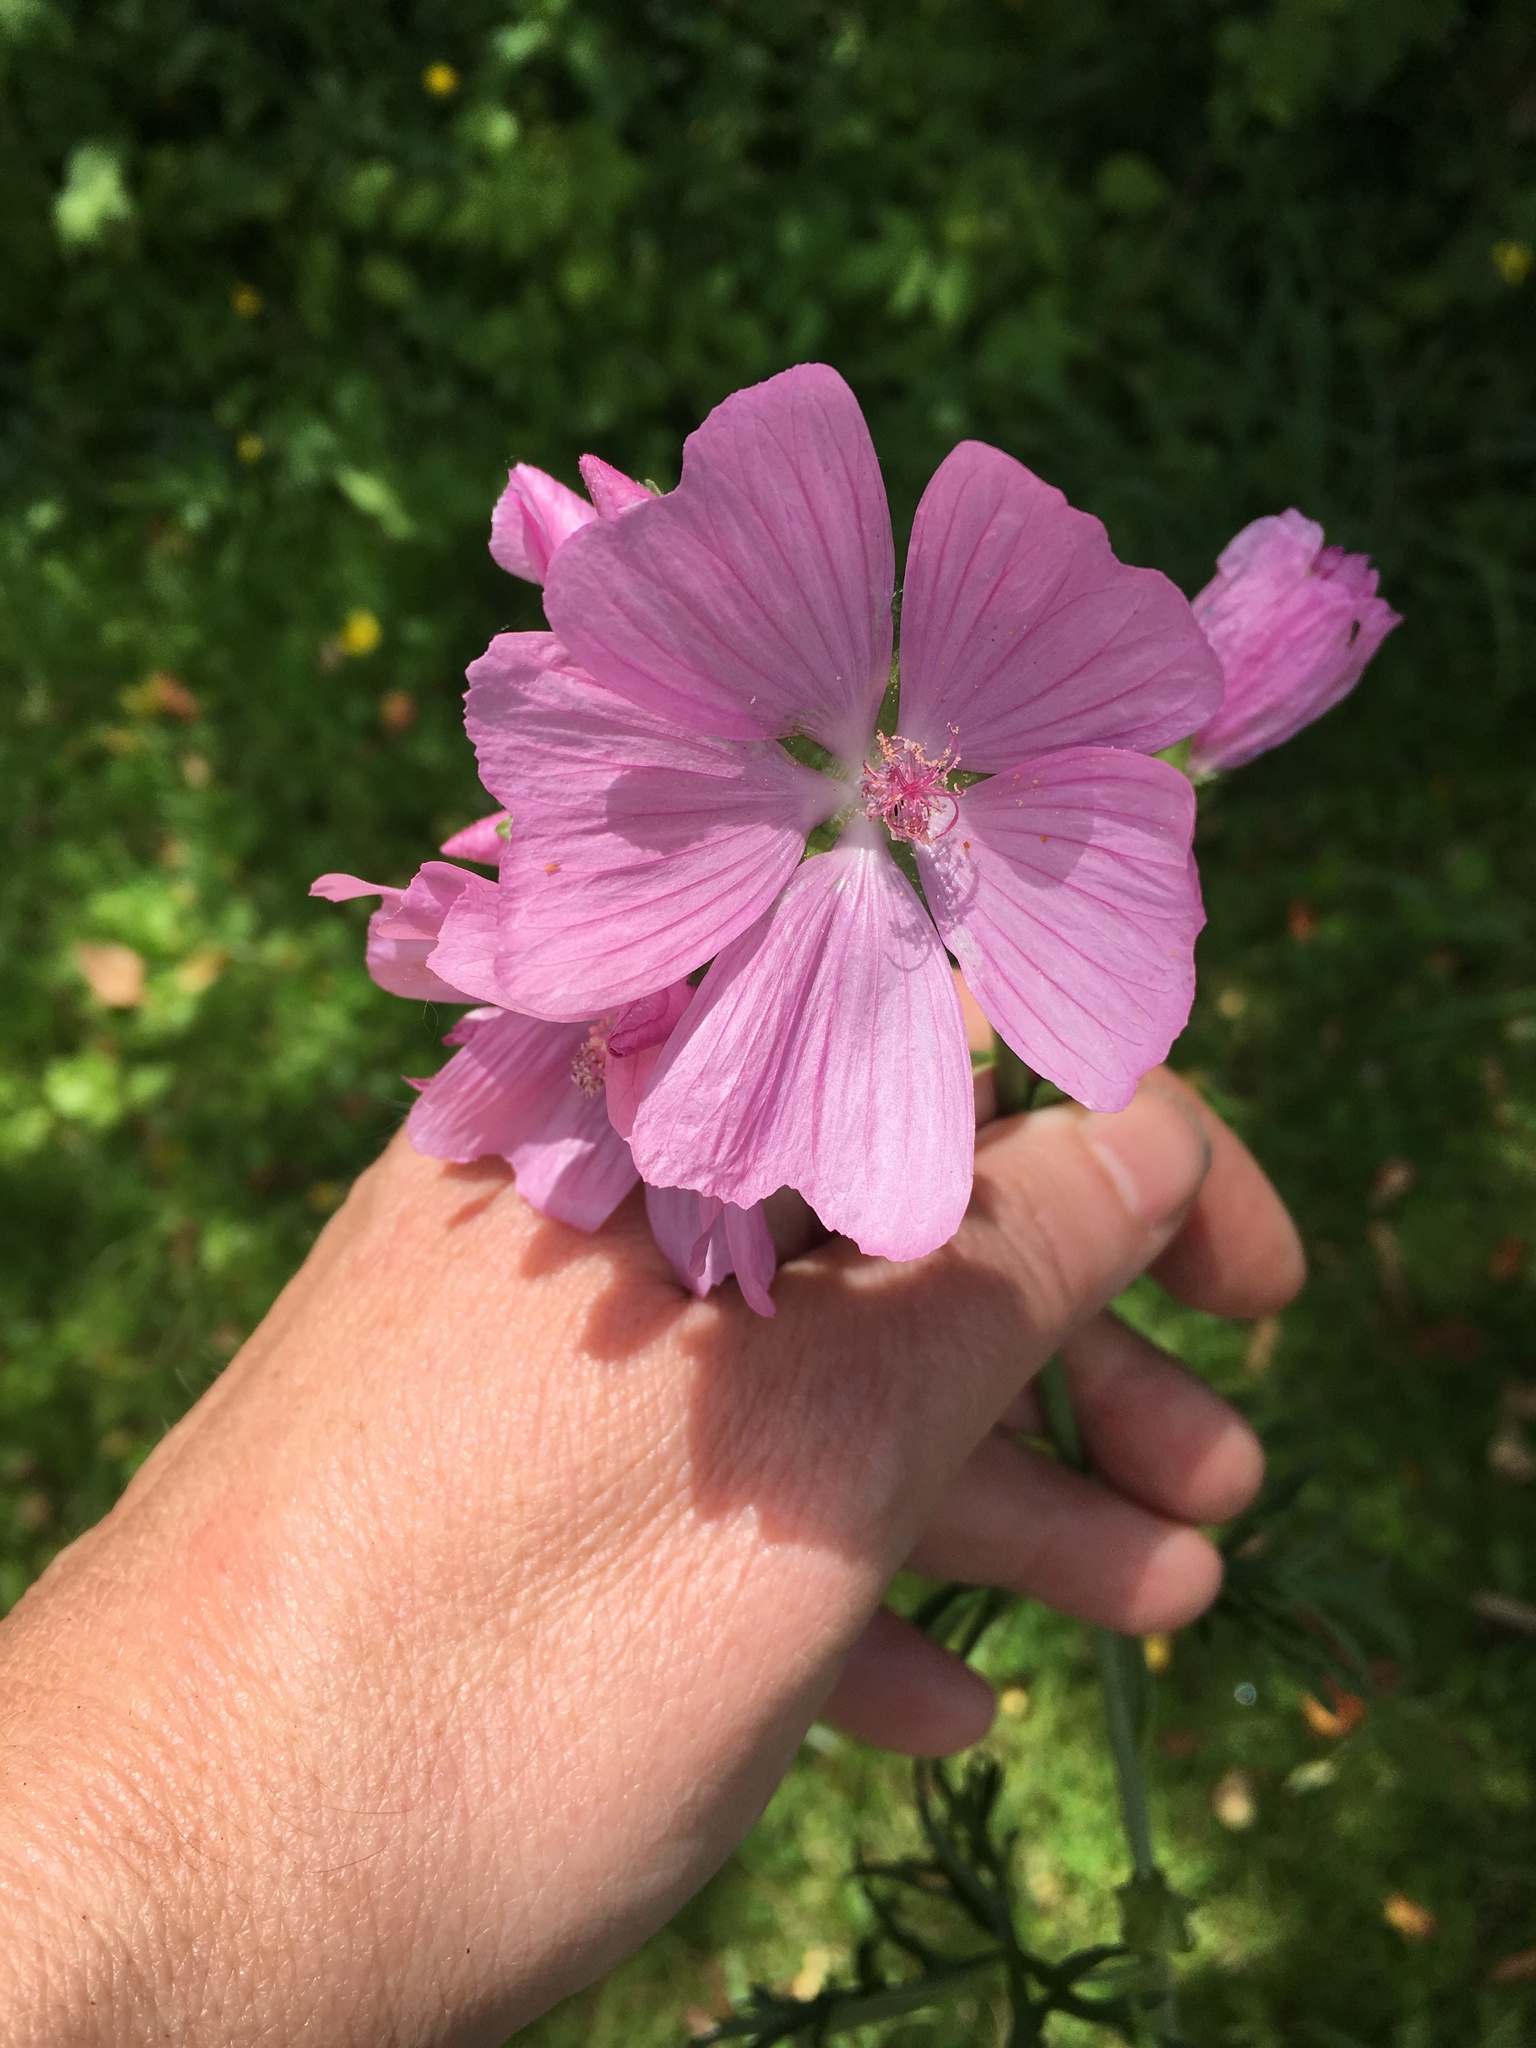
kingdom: Plantae
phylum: Tracheophyta
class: Magnoliopsida
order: Malvales
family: Malvaceae
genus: Malva
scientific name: Malva moschata
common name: Musk mallow
